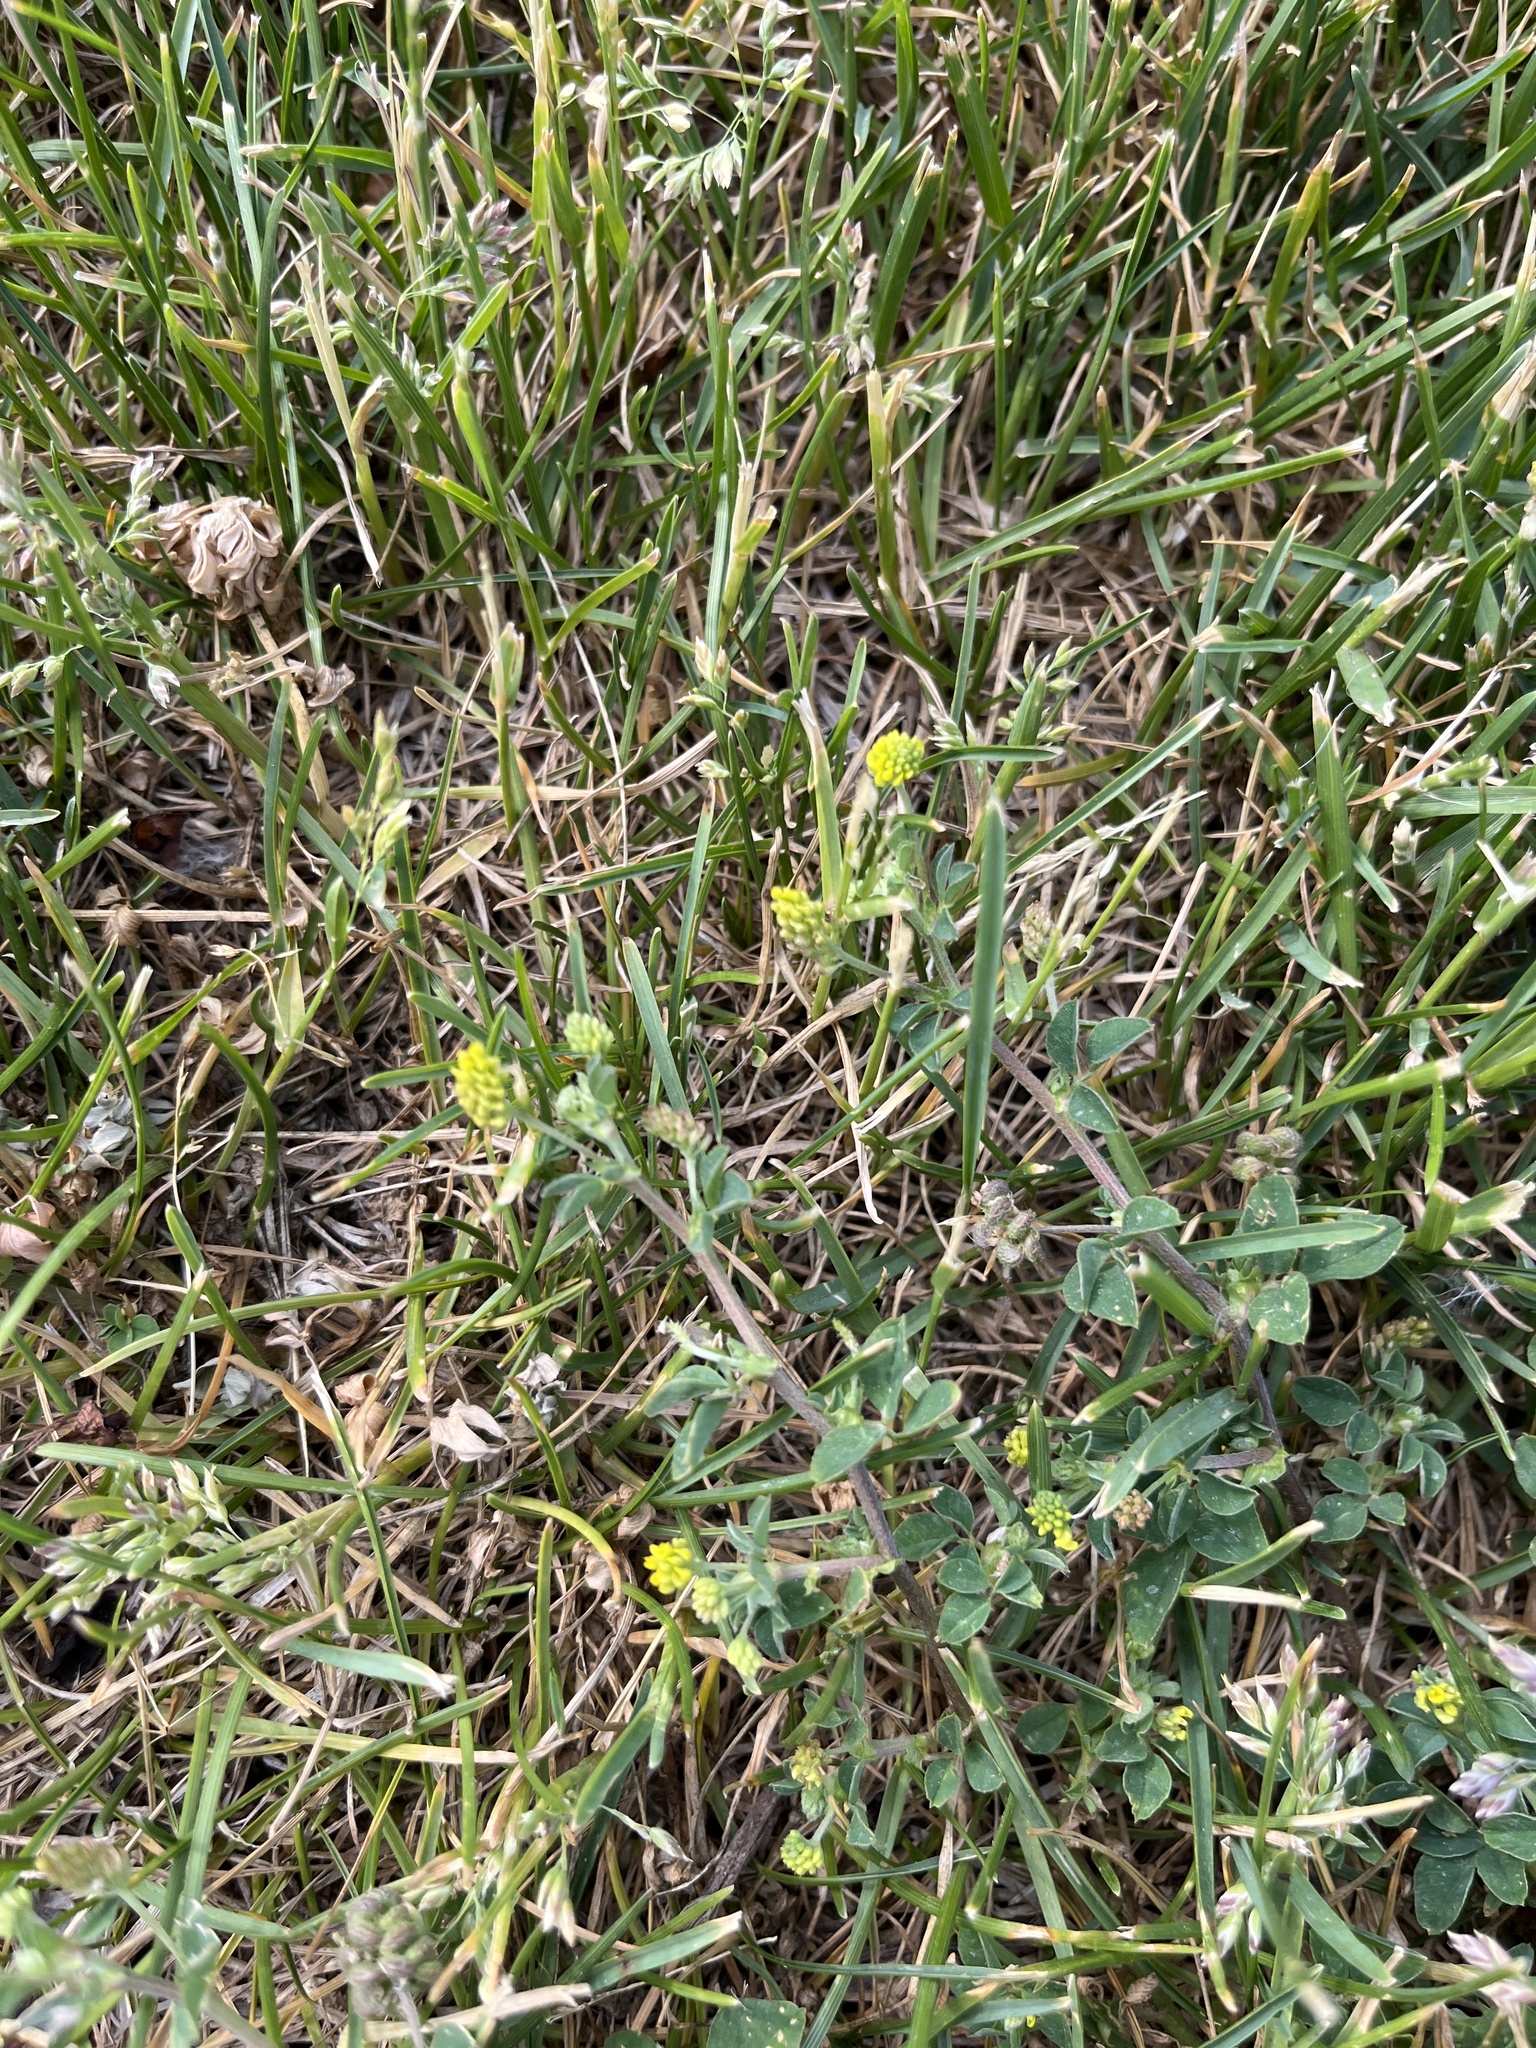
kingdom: Plantae
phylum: Tracheophyta
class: Magnoliopsida
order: Fabales
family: Fabaceae
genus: Medicago
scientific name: Medicago lupulina
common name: Black medick
